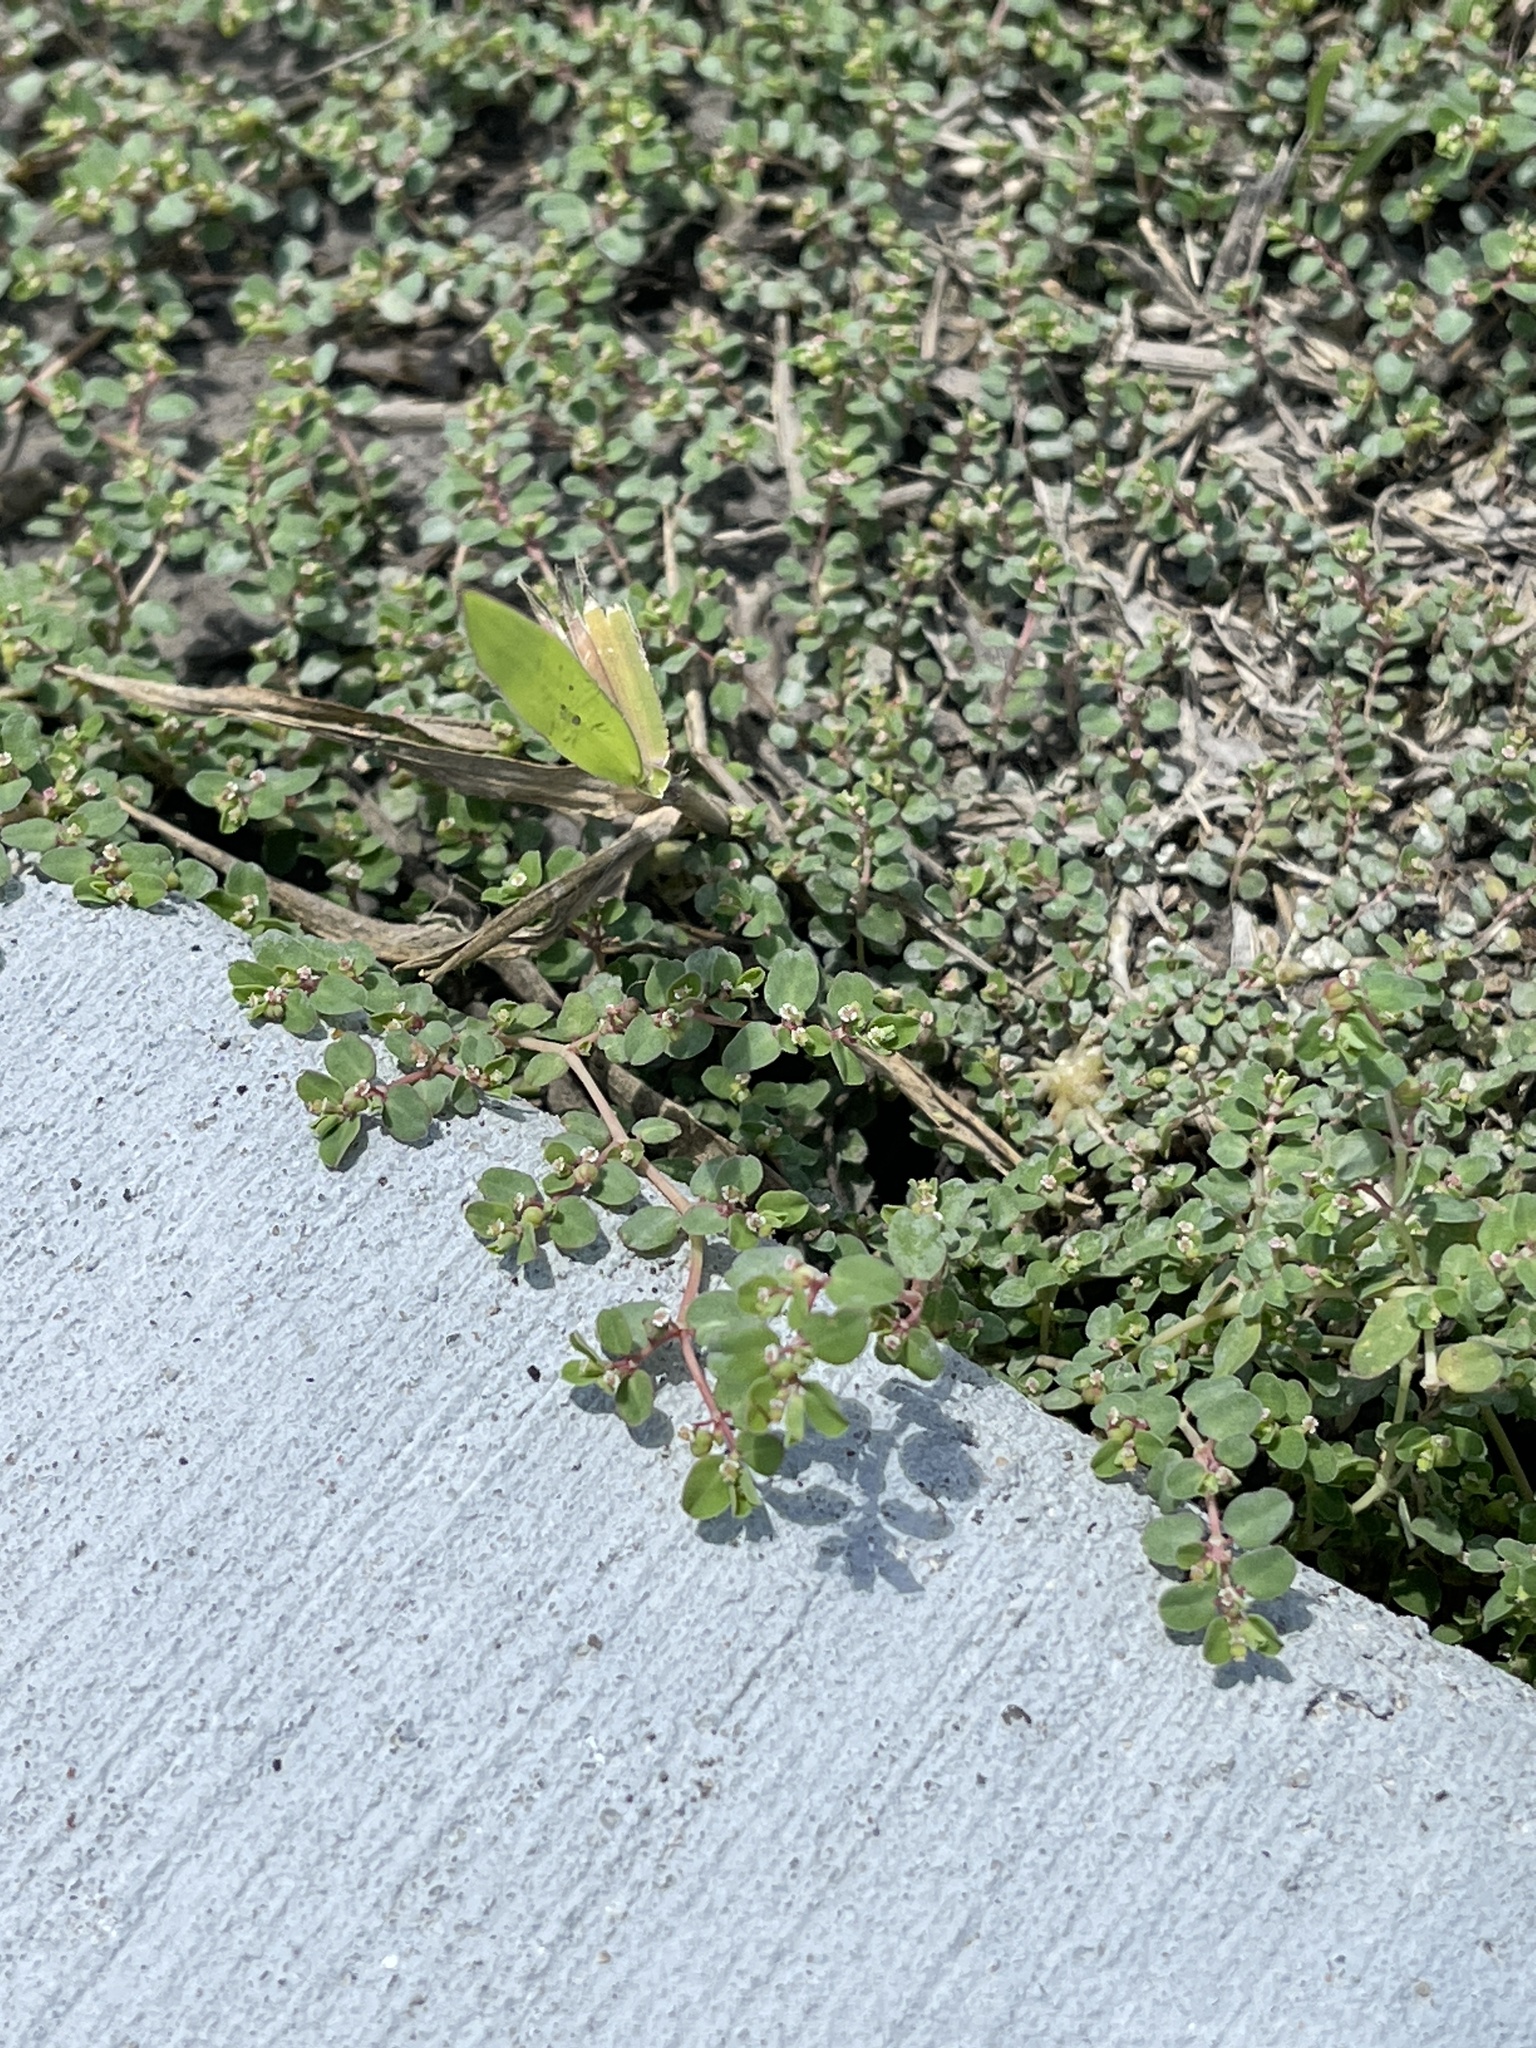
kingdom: Plantae
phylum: Tracheophyta
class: Magnoliopsida
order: Malpighiales
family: Euphorbiaceae
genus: Euphorbia
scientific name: Euphorbia serpens
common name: Matted sandmat
